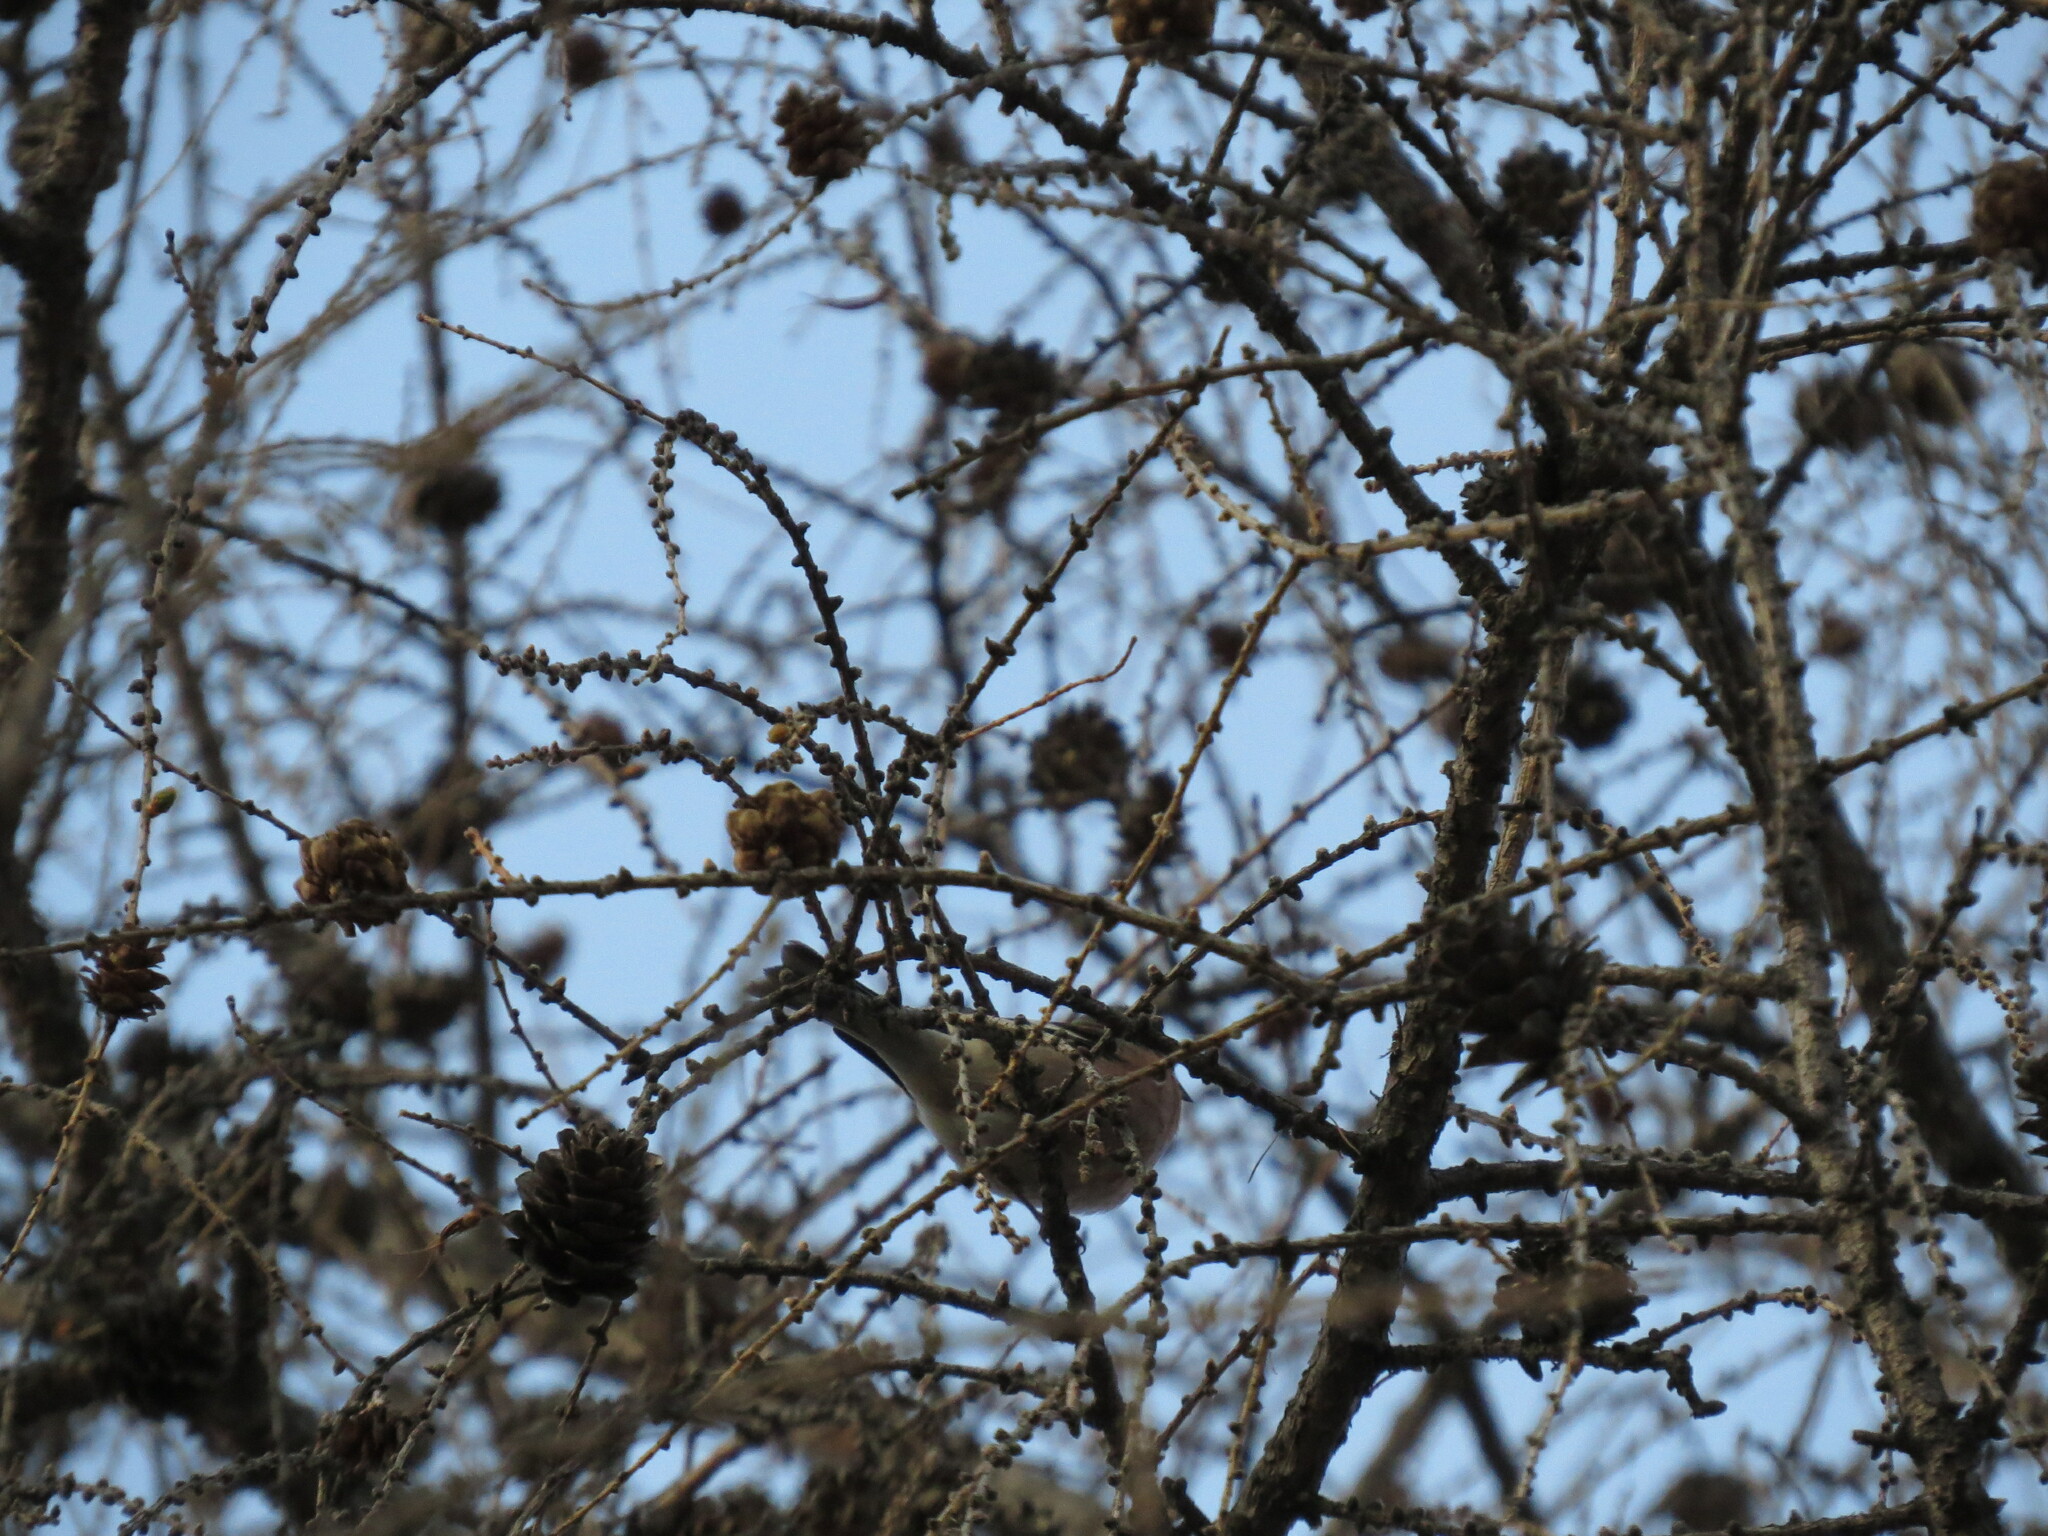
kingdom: Animalia
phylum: Chordata
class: Aves
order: Passeriformes
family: Fringillidae
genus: Fringilla
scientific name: Fringilla coelebs
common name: Common chaffinch
